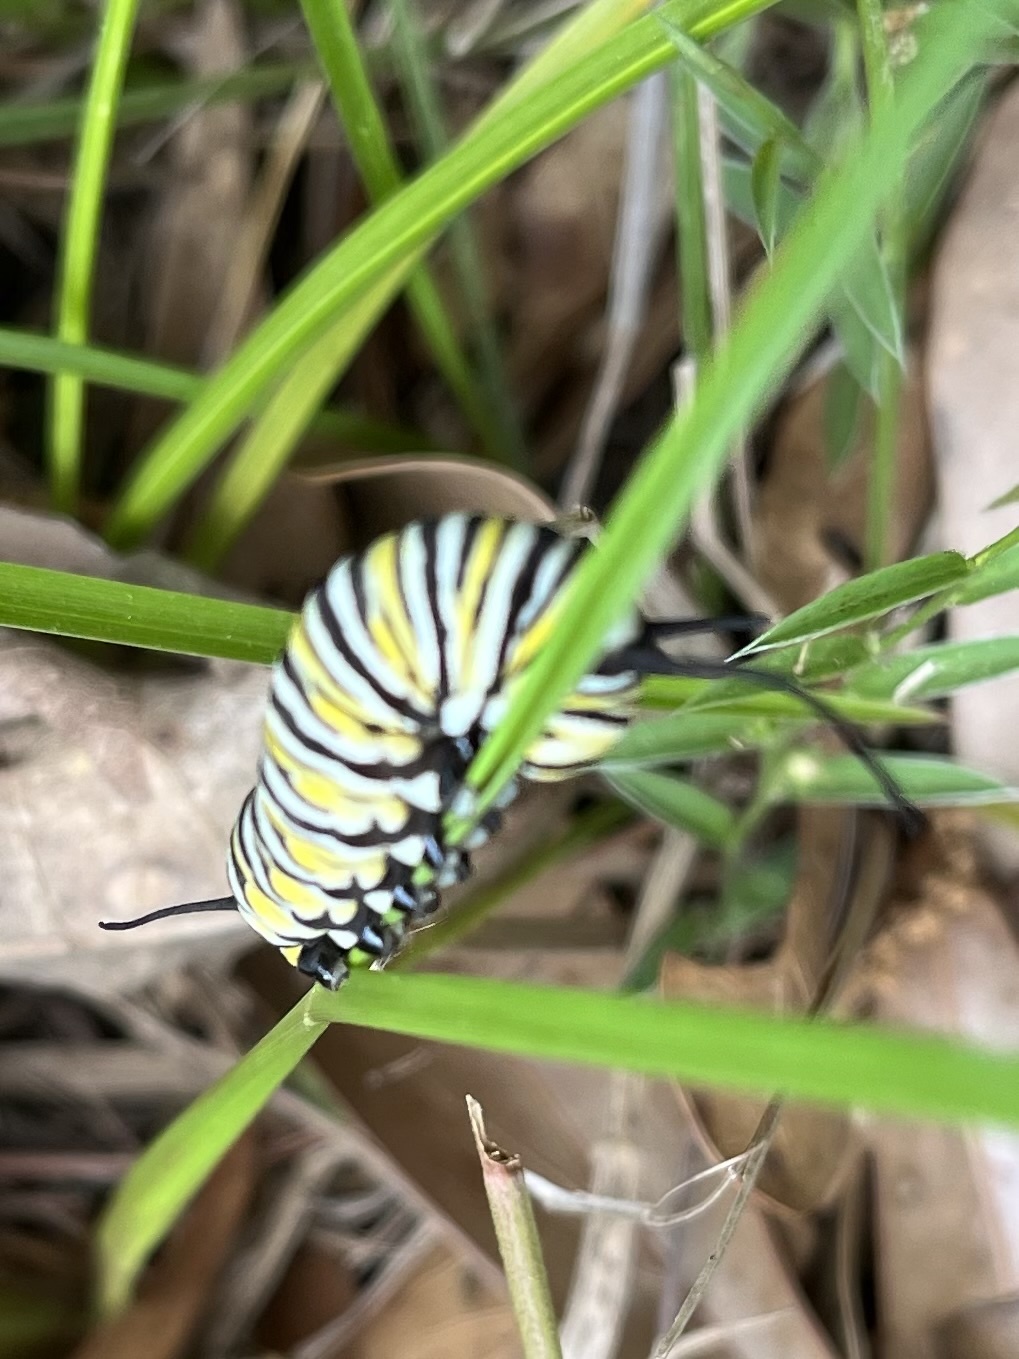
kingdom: Animalia
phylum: Arthropoda
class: Insecta
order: Lepidoptera
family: Nymphalidae
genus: Danaus
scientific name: Danaus plexippus
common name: Monarch
